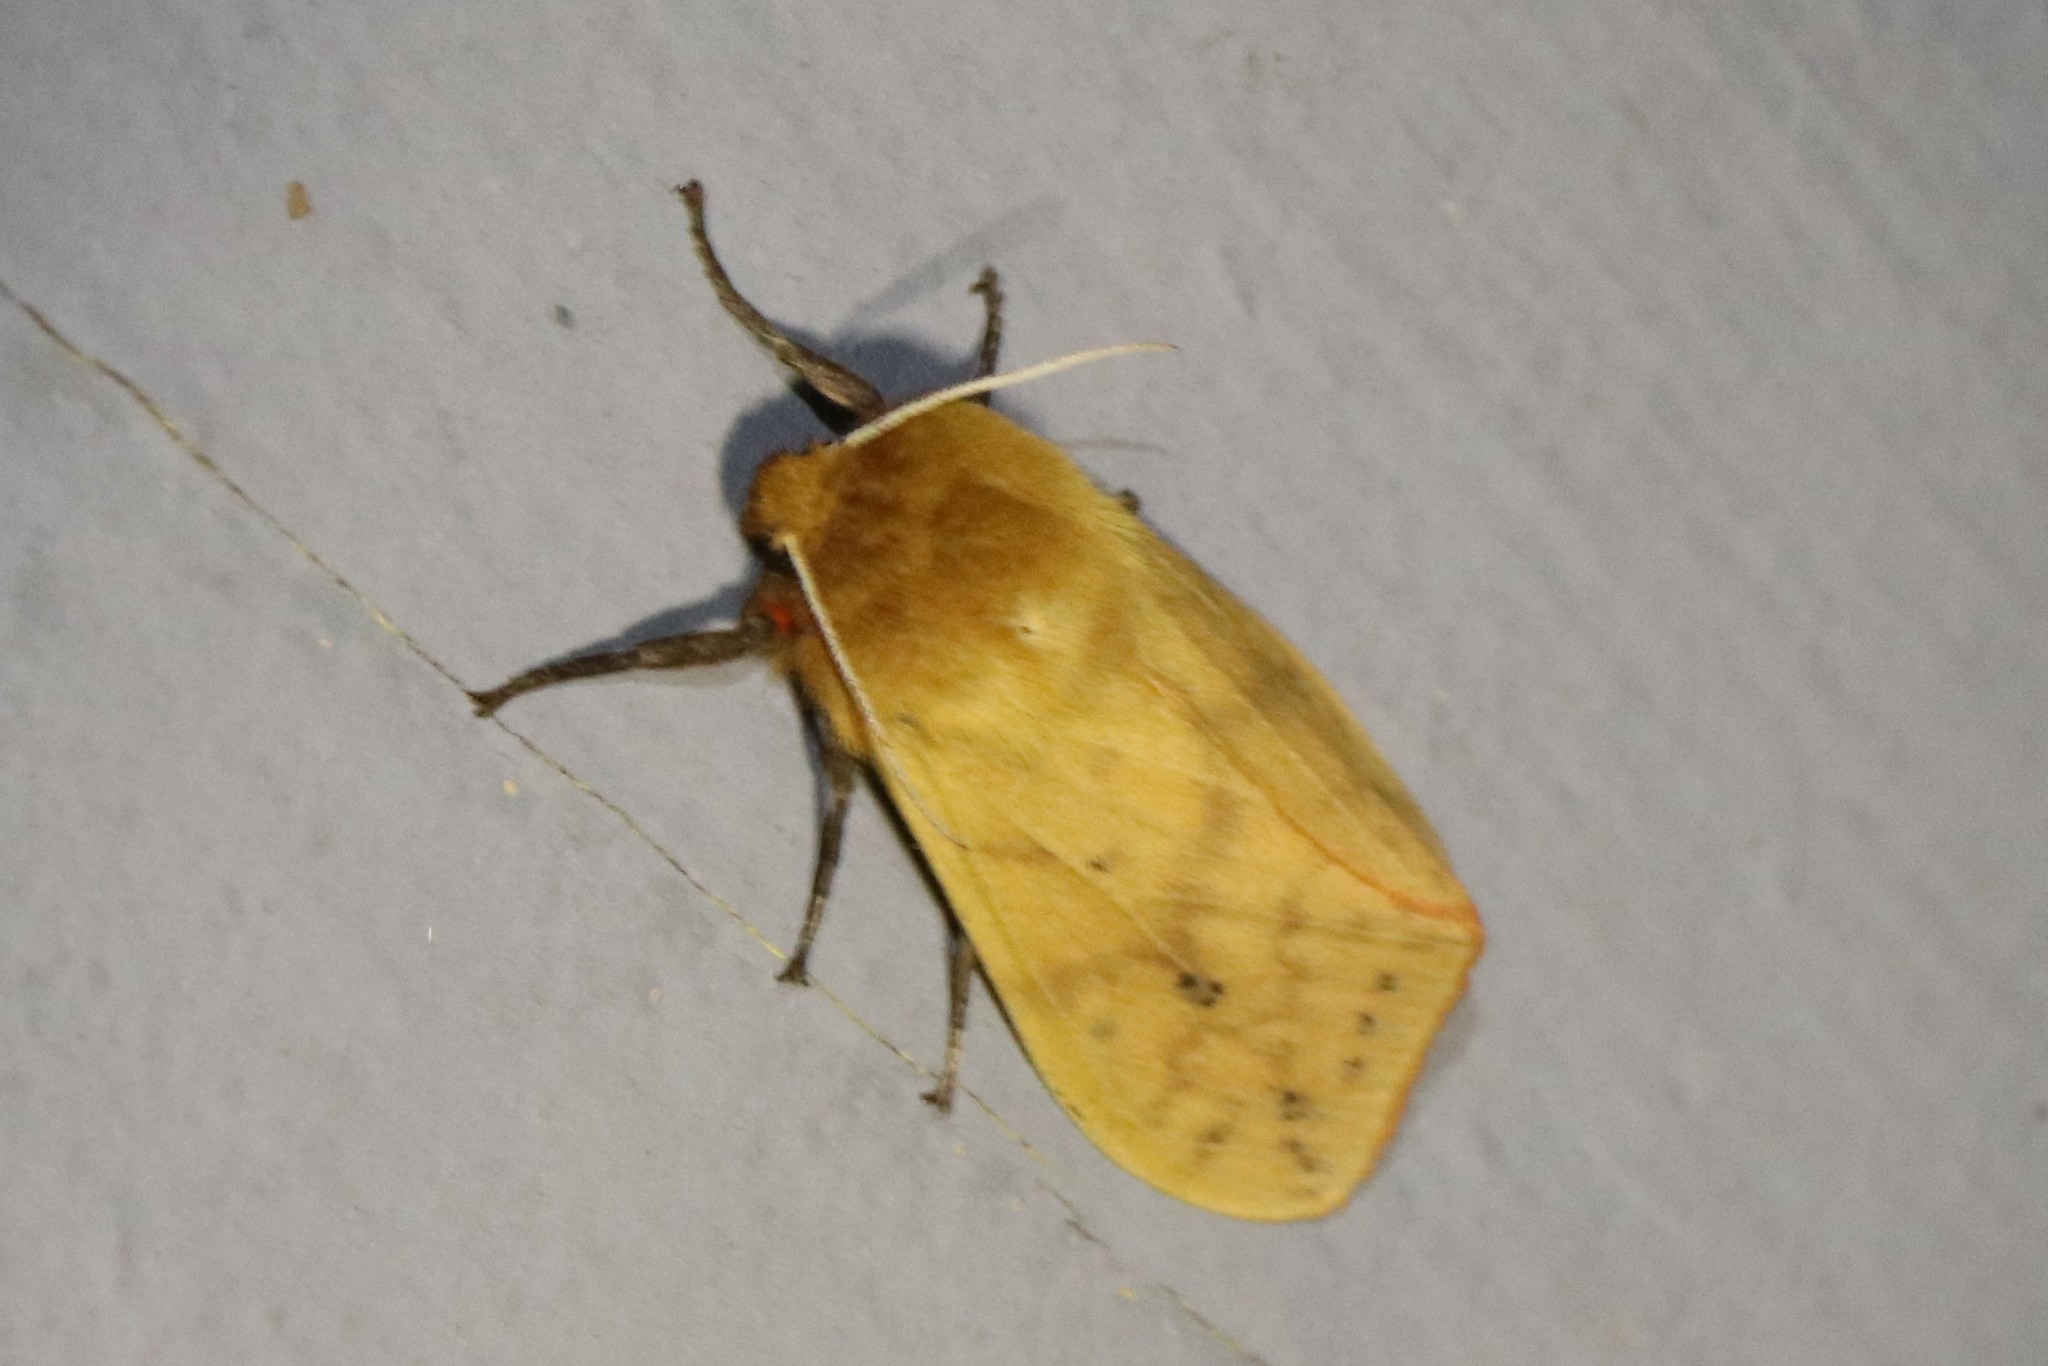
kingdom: Animalia
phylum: Arthropoda
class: Insecta
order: Lepidoptera
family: Erebidae
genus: Pyrrharctia
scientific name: Pyrrharctia isabella
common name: Isabella tiger moth
